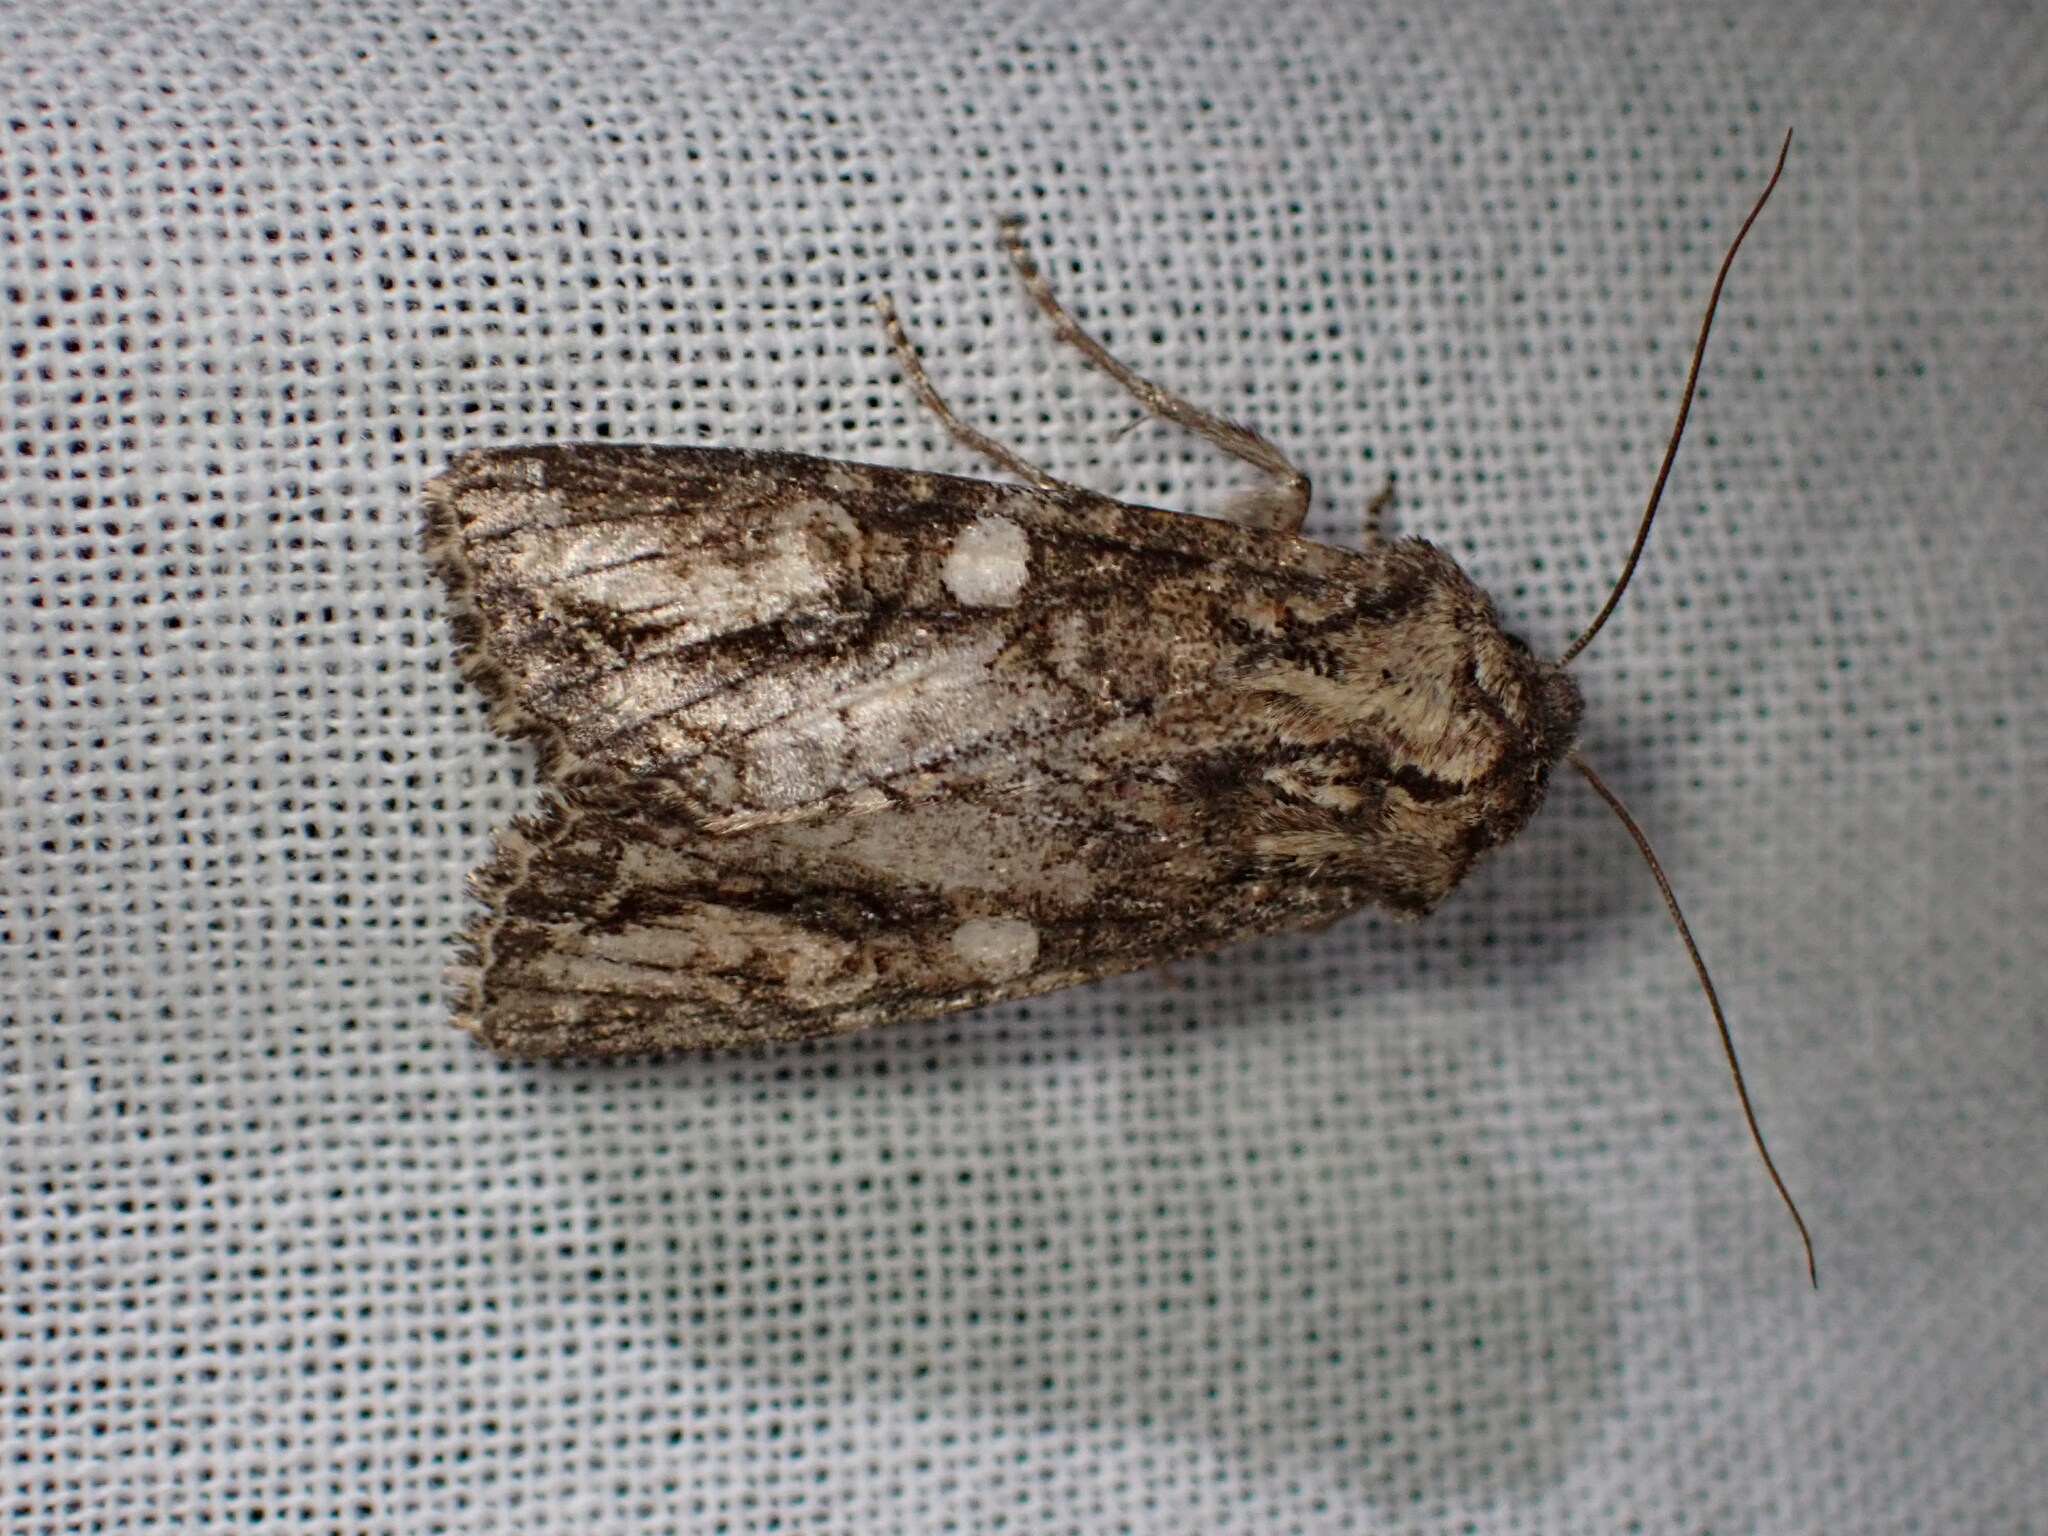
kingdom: Animalia
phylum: Arthropoda
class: Insecta
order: Lepidoptera
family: Noctuidae
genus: Egira
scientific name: Egira perlubens
